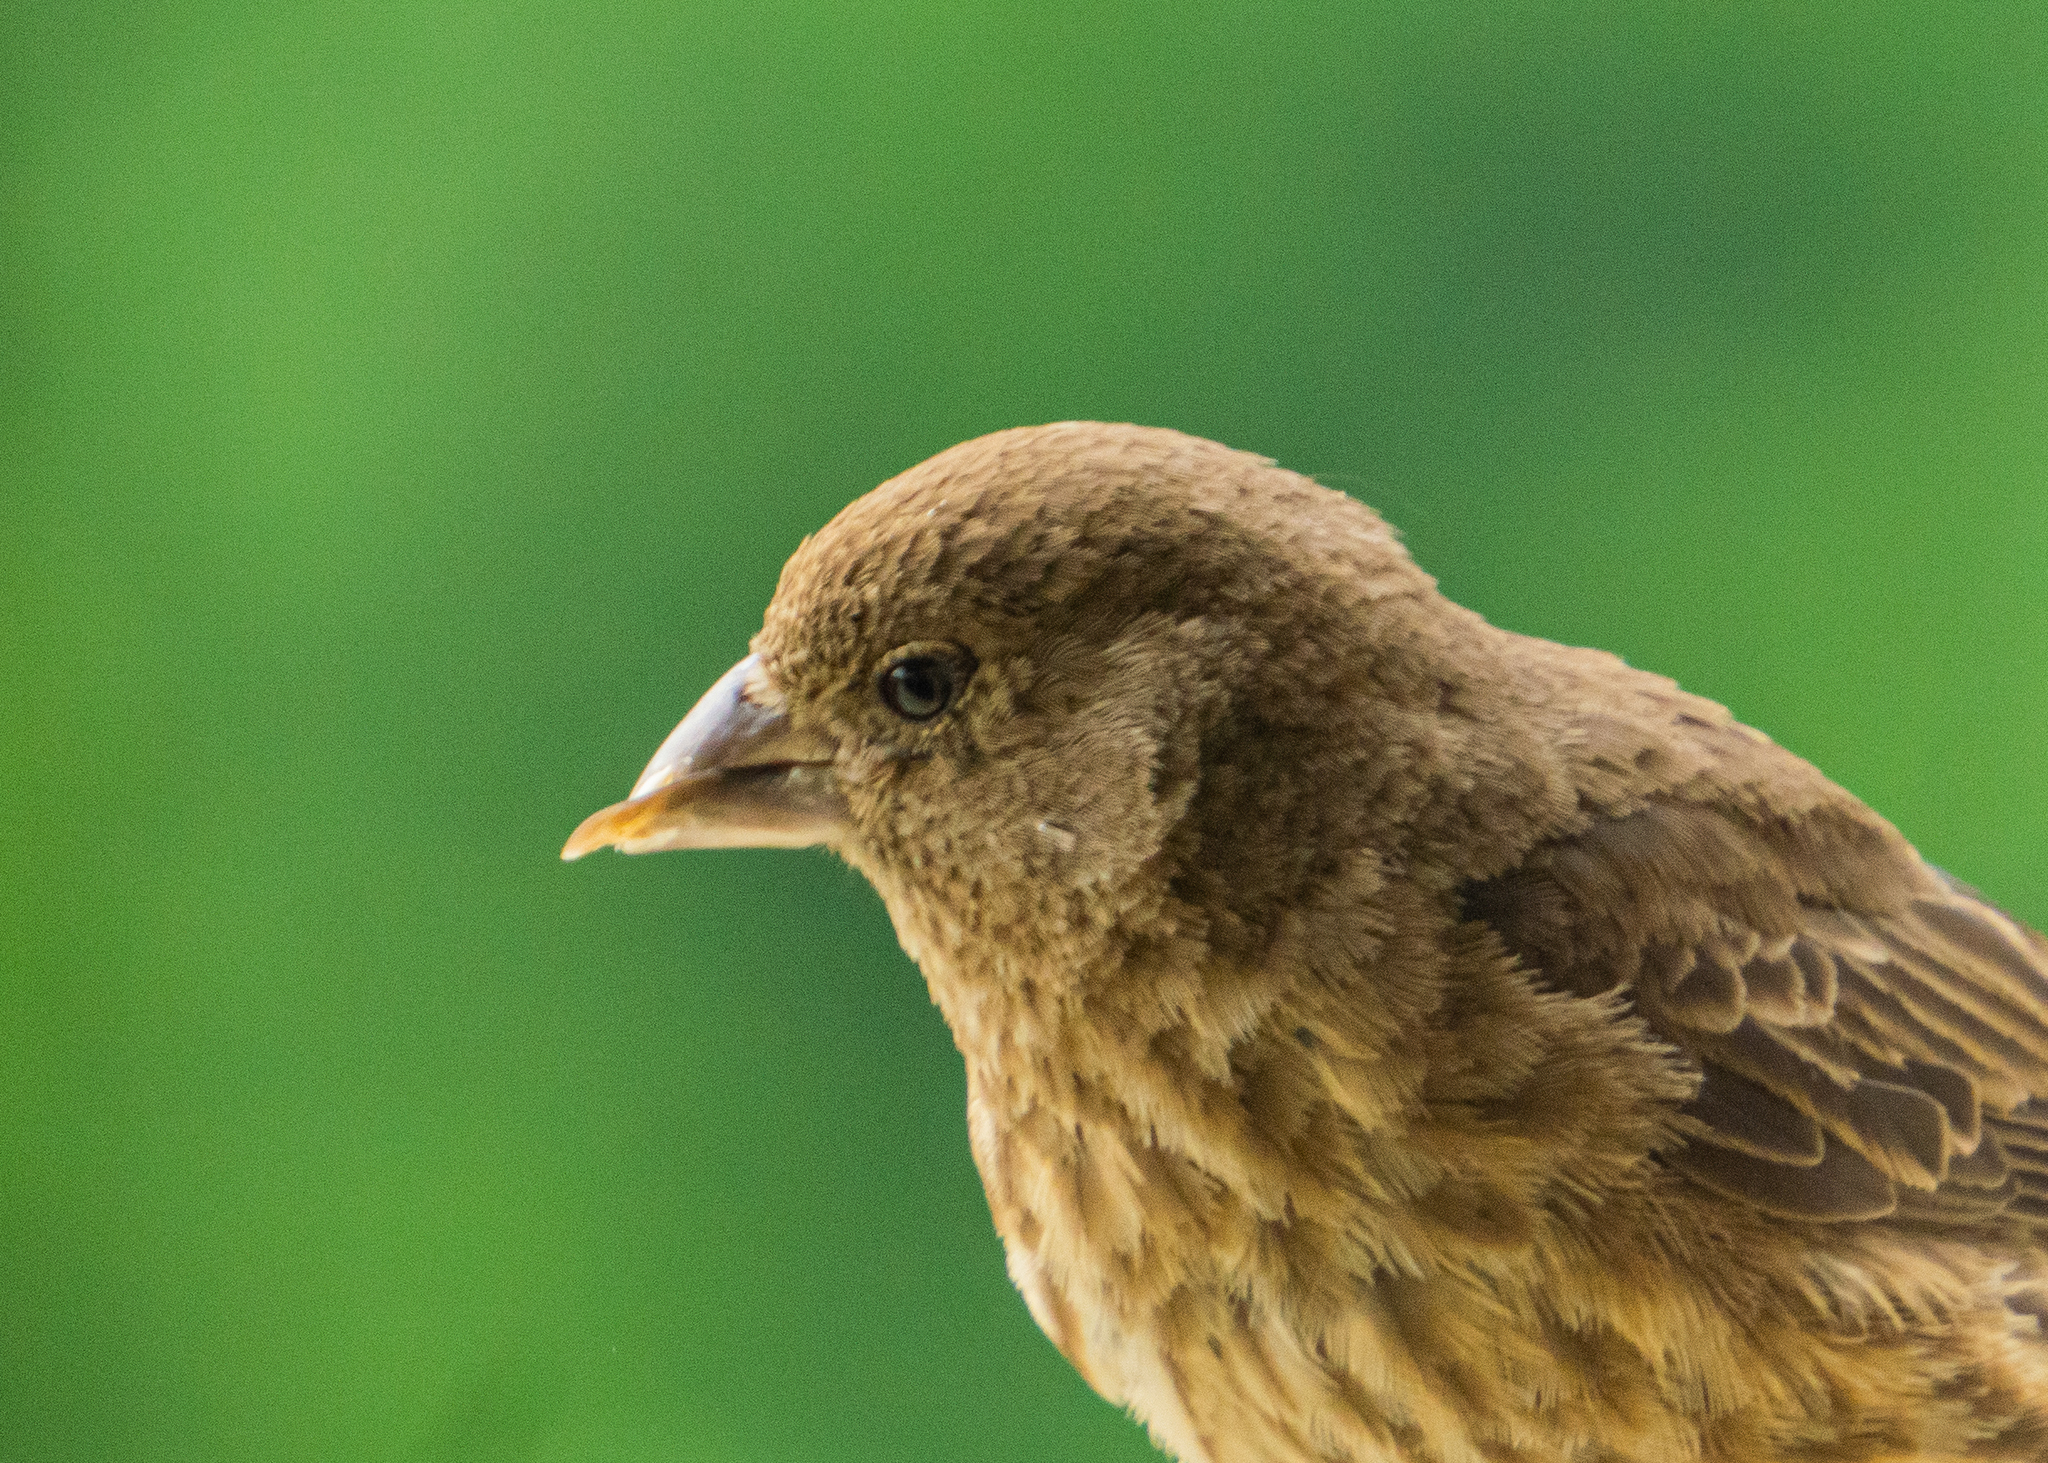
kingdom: Animalia
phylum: Chordata
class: Aves
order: Passeriformes
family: Fringillidae
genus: Haemorhous
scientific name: Haemorhous mexicanus
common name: House finch
